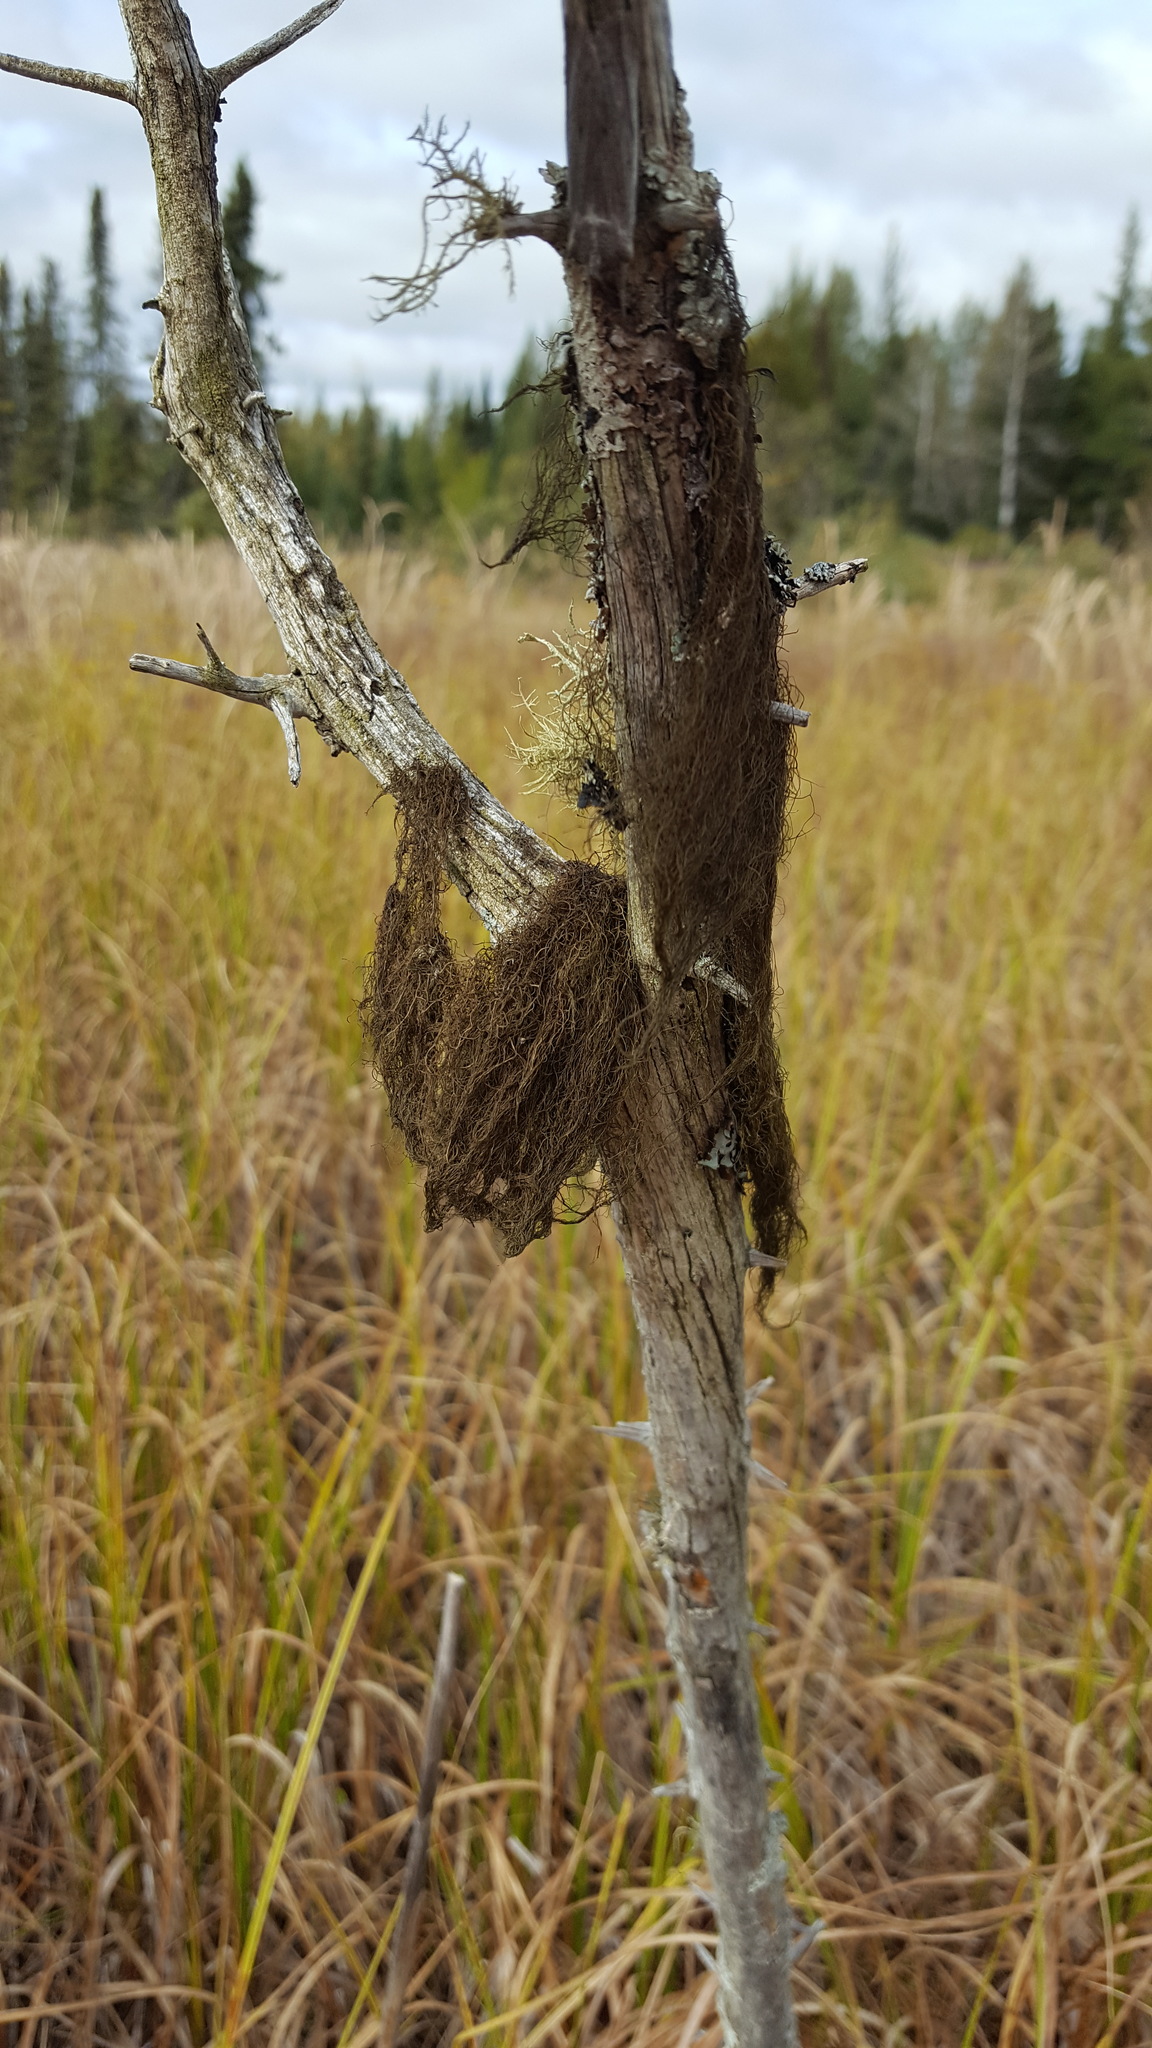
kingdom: Fungi
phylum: Ascomycota
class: Lecanoromycetes
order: Lecanorales
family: Parmeliaceae
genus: Bryoria
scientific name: Bryoria trichodes
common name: Inelegant horsehair lichen
